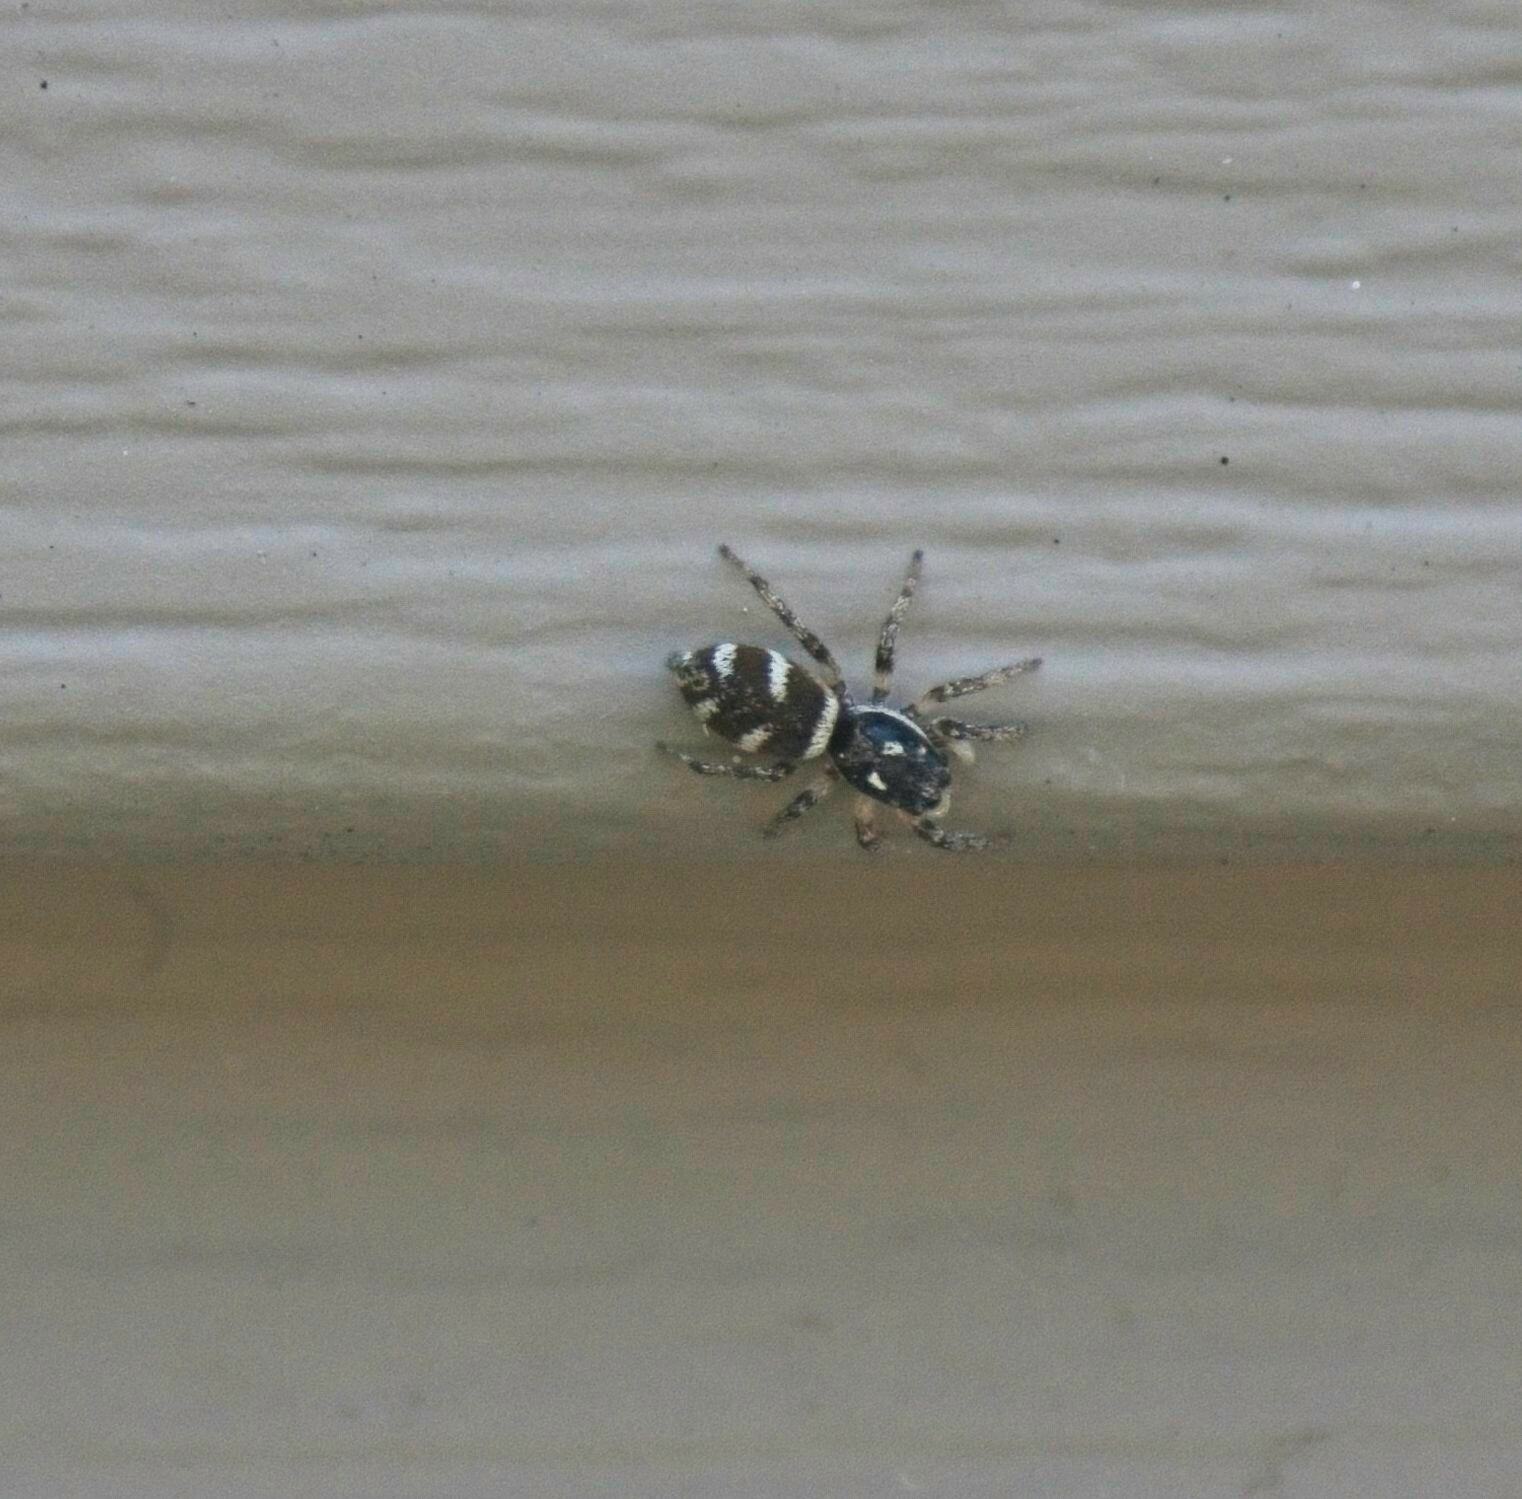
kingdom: Animalia
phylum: Arthropoda
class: Arachnida
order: Araneae
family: Salticidae
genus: Salticus
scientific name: Salticus scenicus
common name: Zebra jumper
